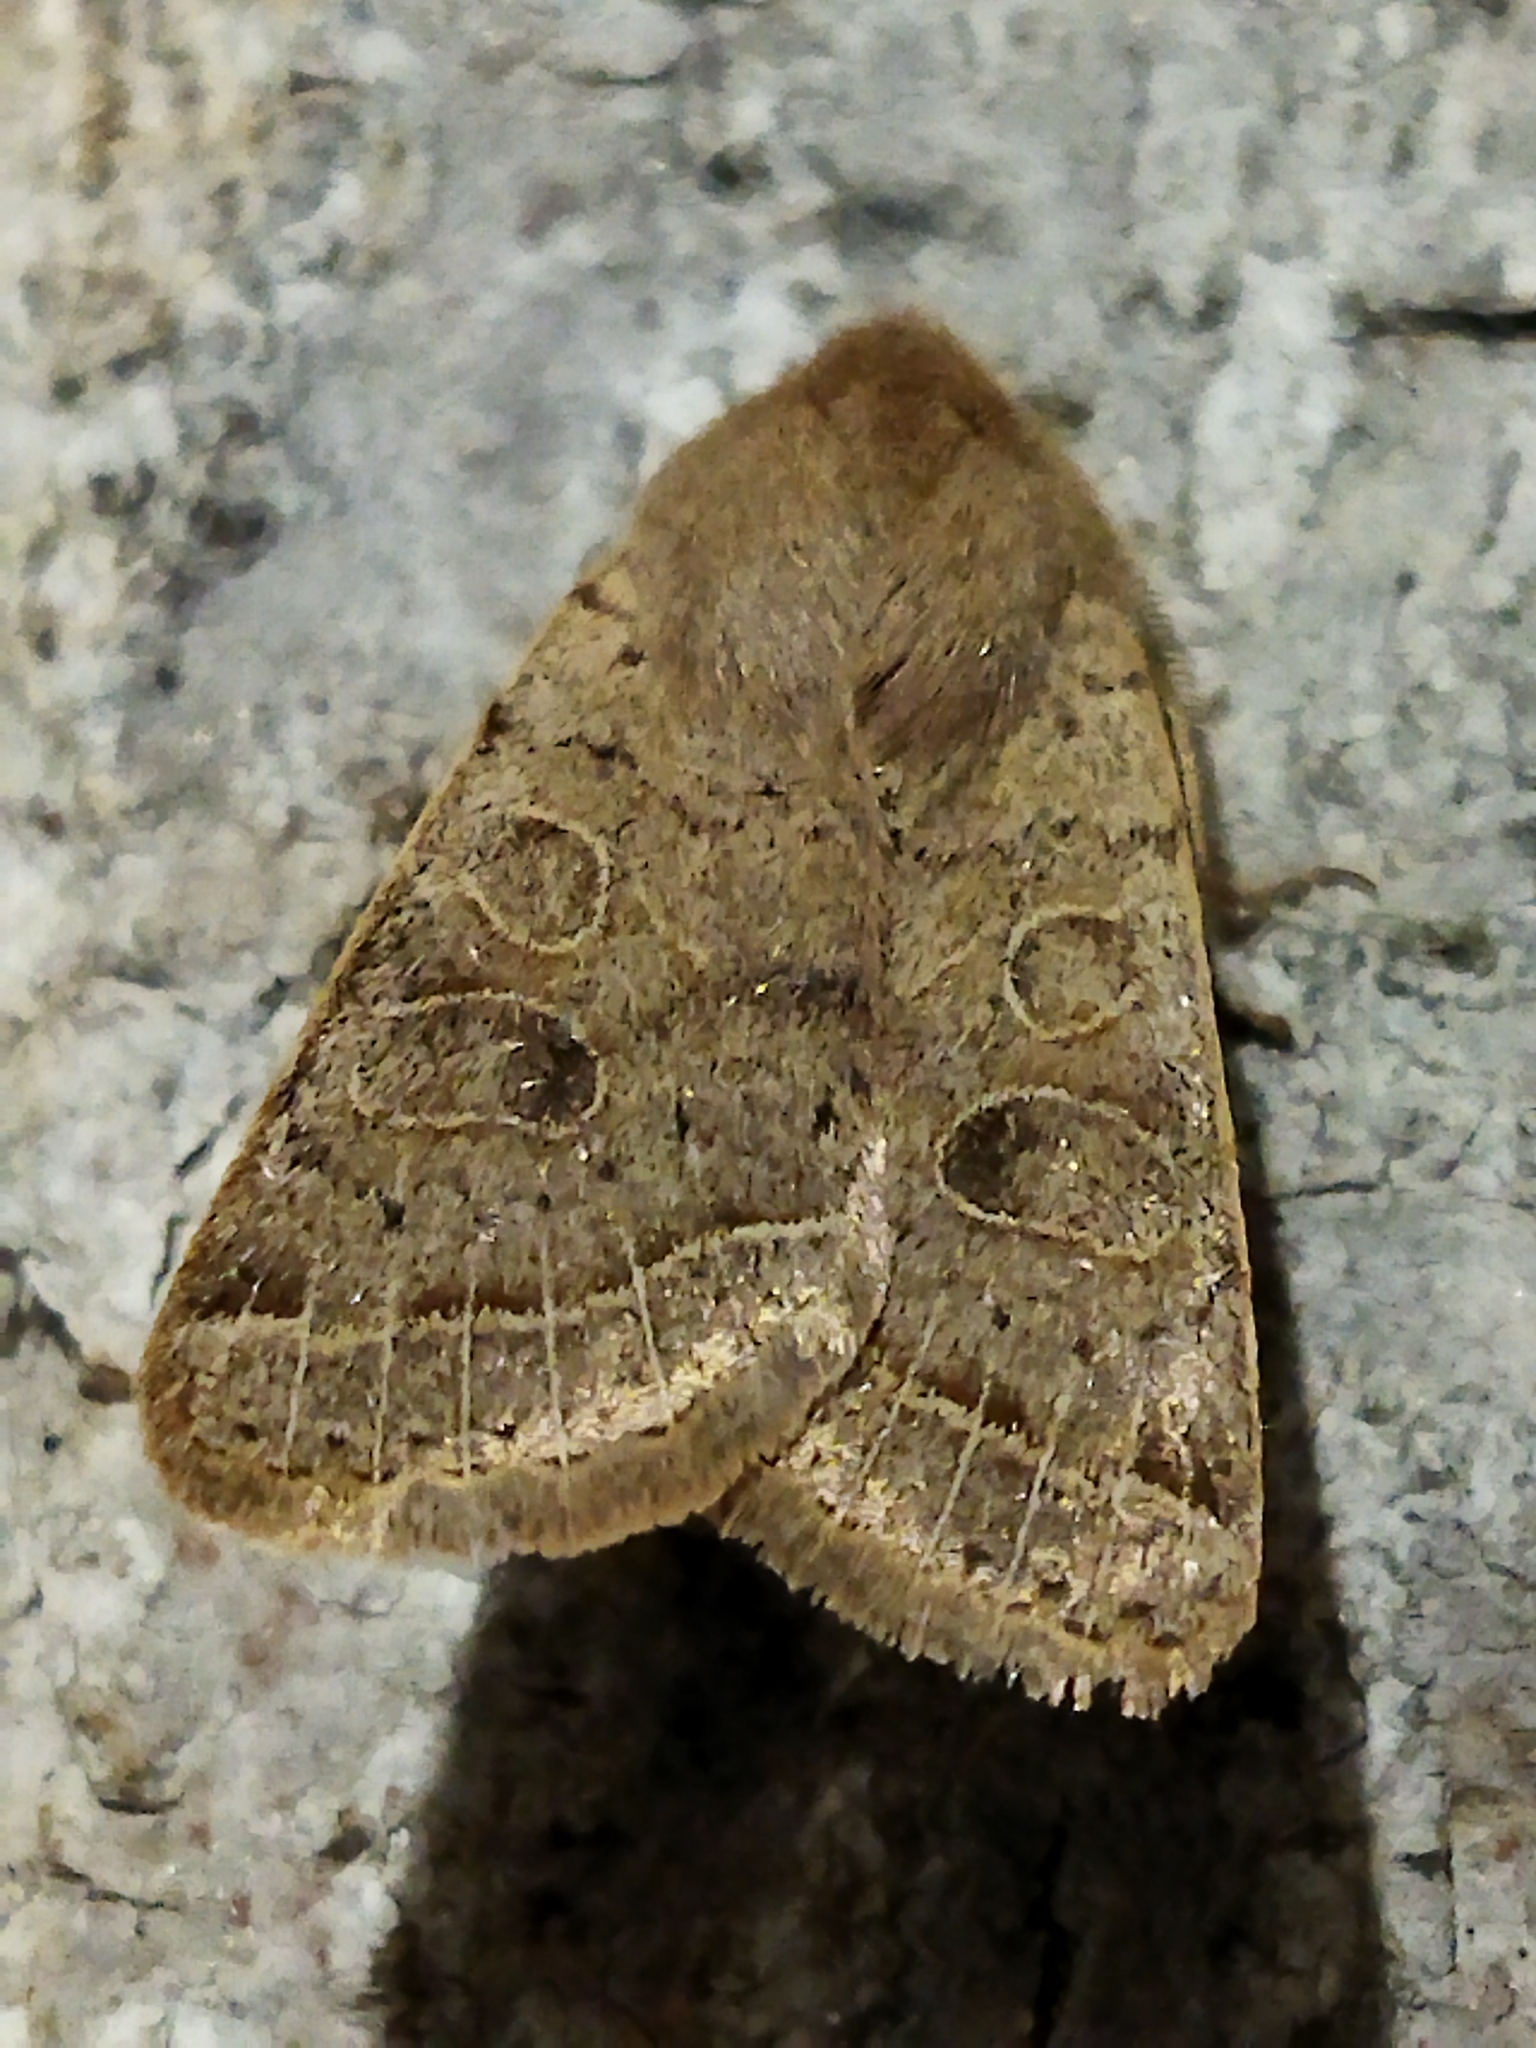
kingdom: Animalia
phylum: Arthropoda
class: Insecta
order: Lepidoptera
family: Noctuidae
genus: Orthosia
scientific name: Orthosia cerasi
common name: Common quaker
